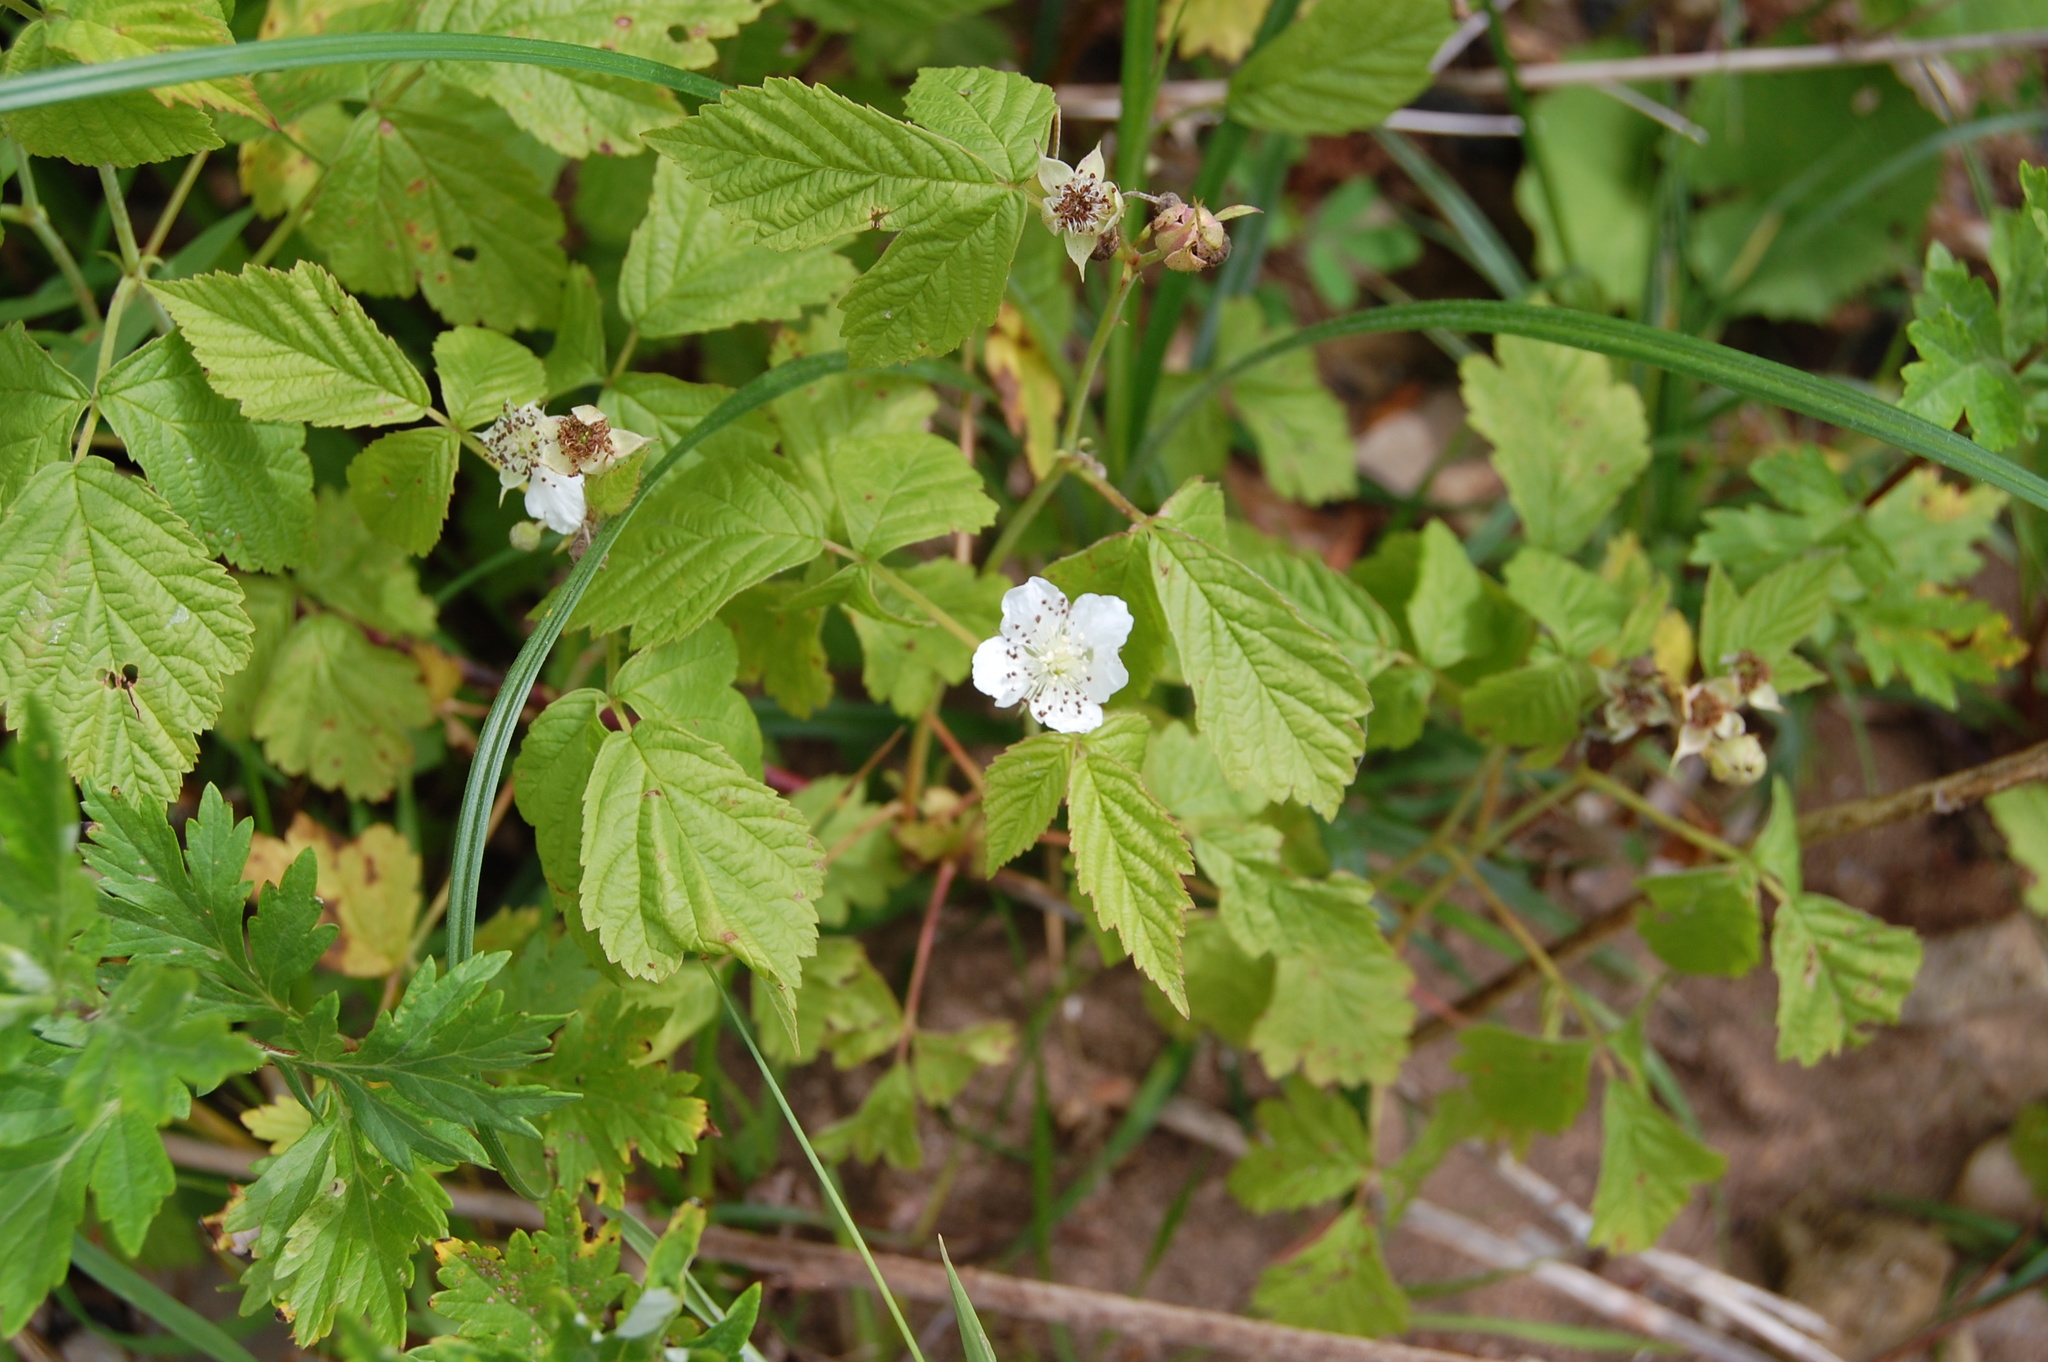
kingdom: Plantae
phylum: Tracheophyta
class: Magnoliopsida
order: Rosales
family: Rosaceae
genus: Rubus
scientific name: Rubus caesius
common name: Dewberry
